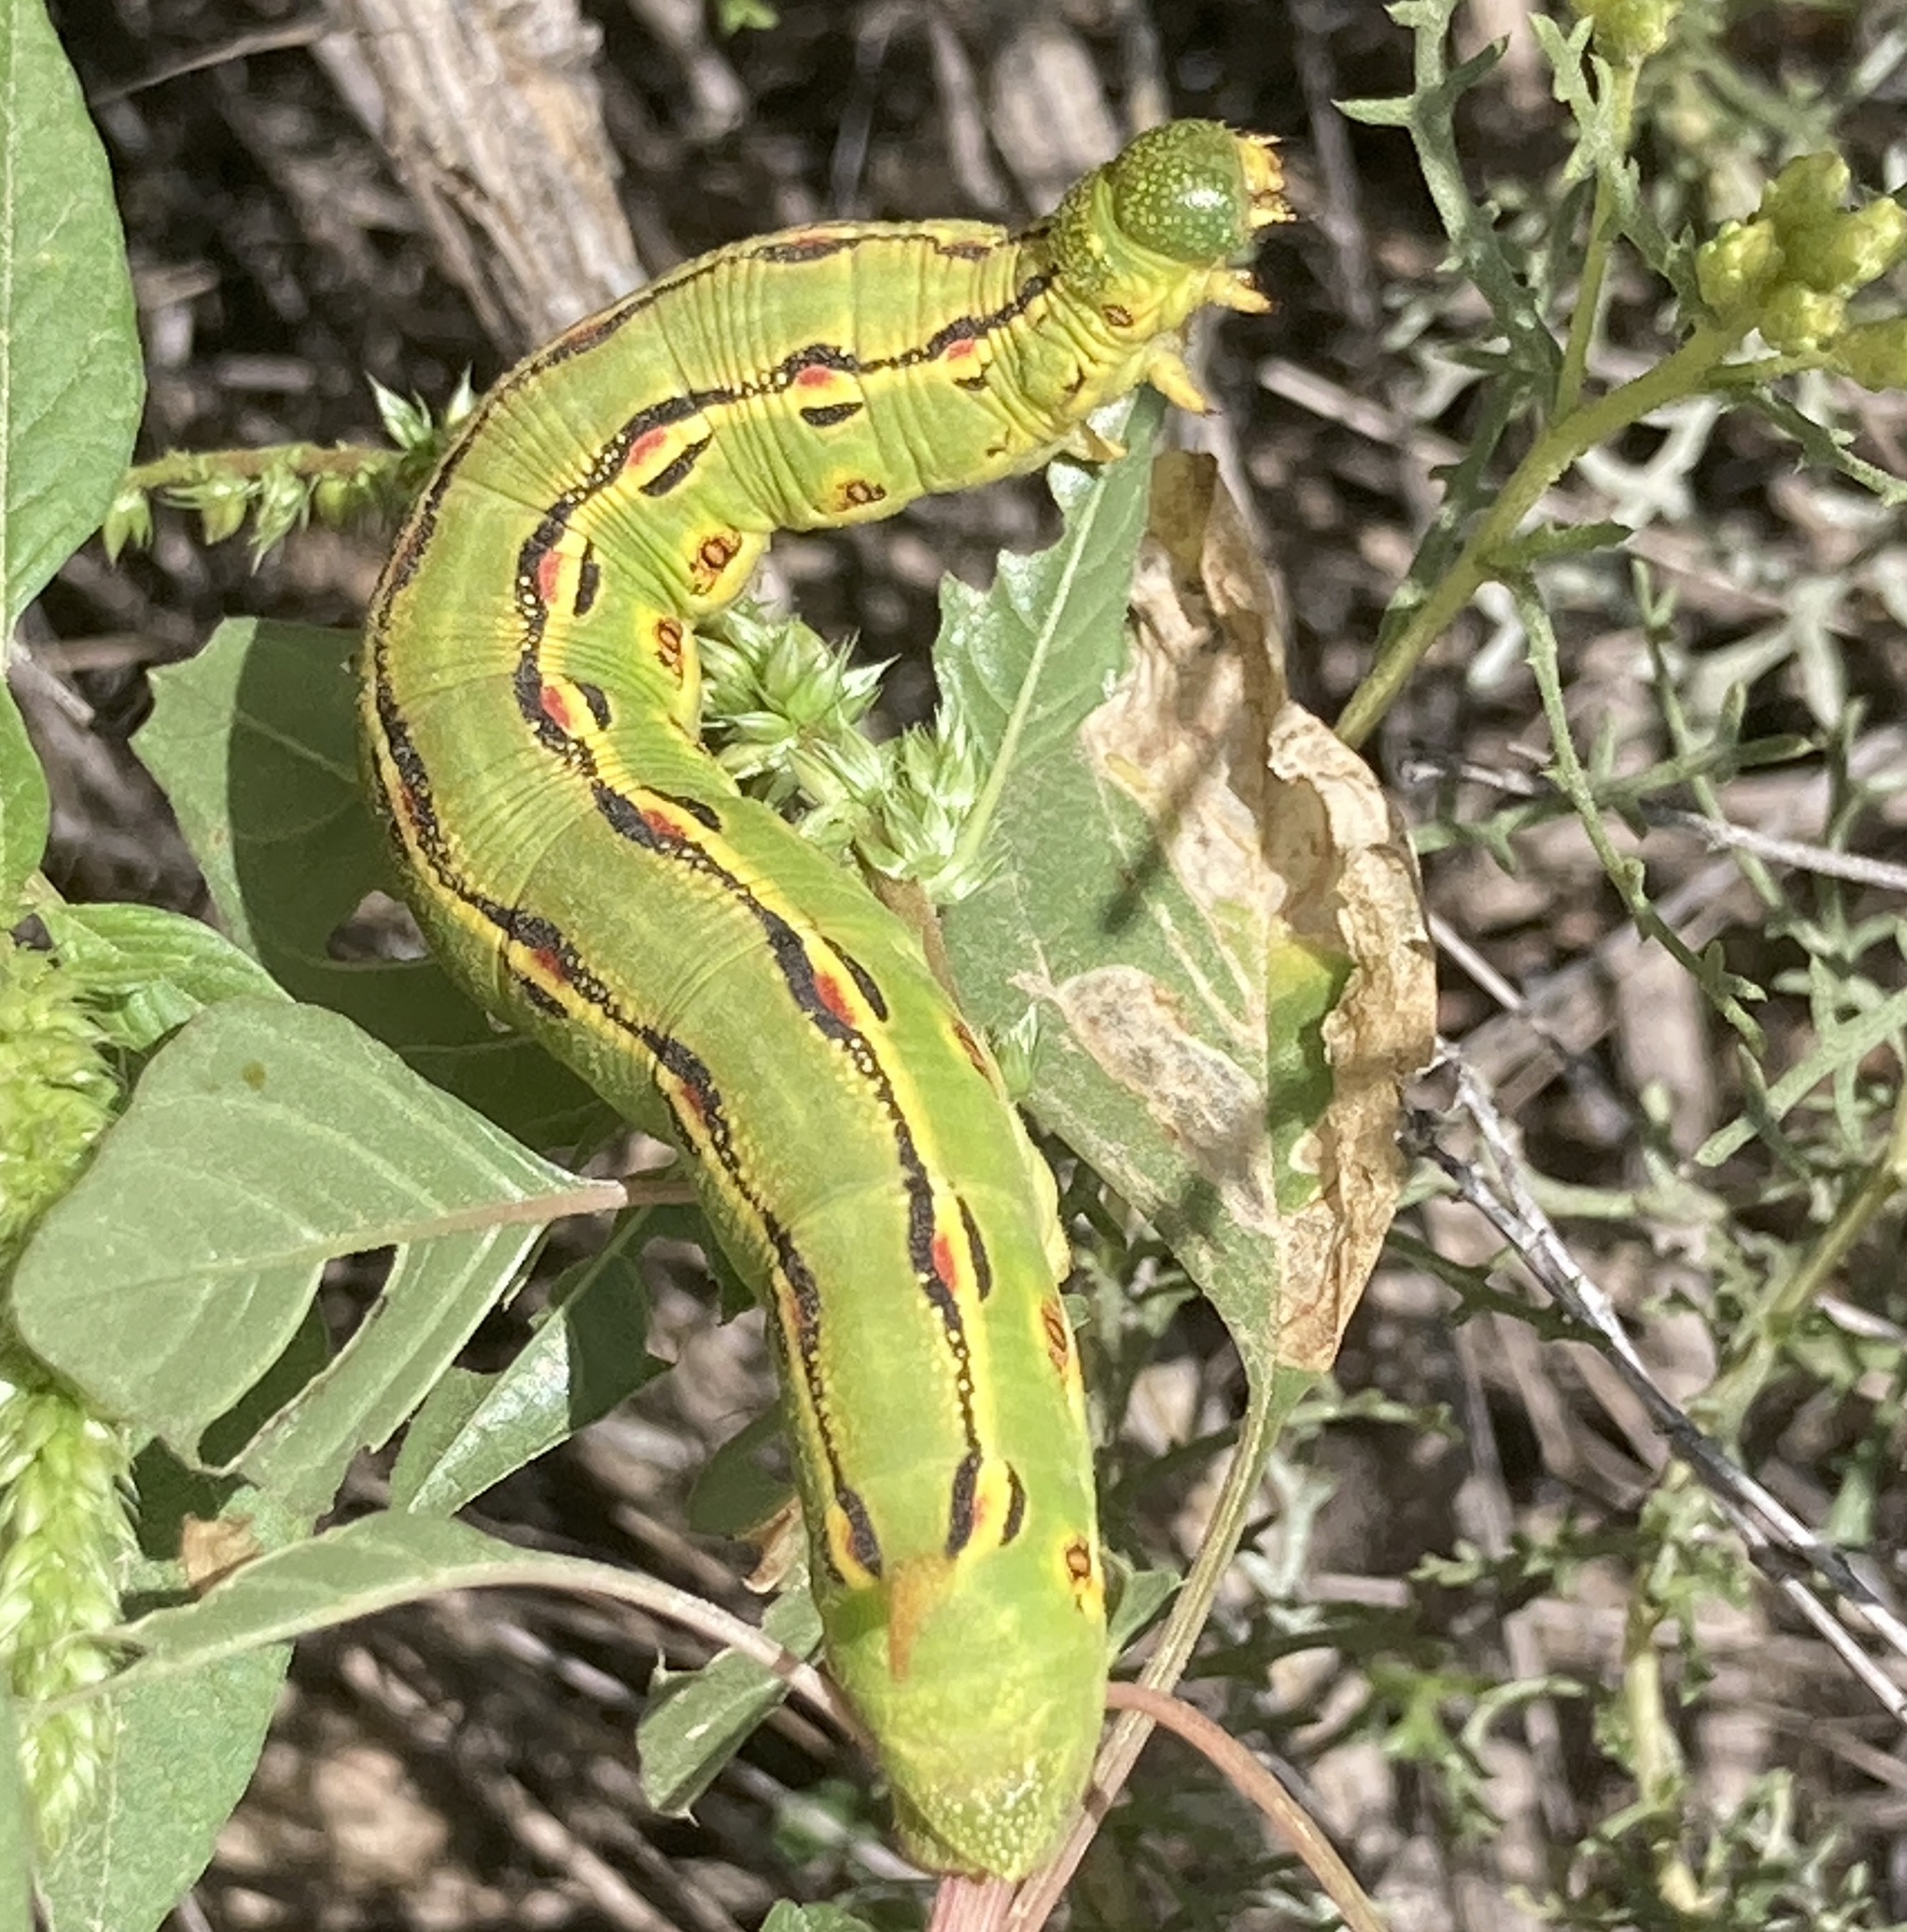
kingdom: Animalia
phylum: Arthropoda
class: Insecta
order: Lepidoptera
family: Pieridae
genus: Zerene
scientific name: Zerene cesonia
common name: Southern dogface
